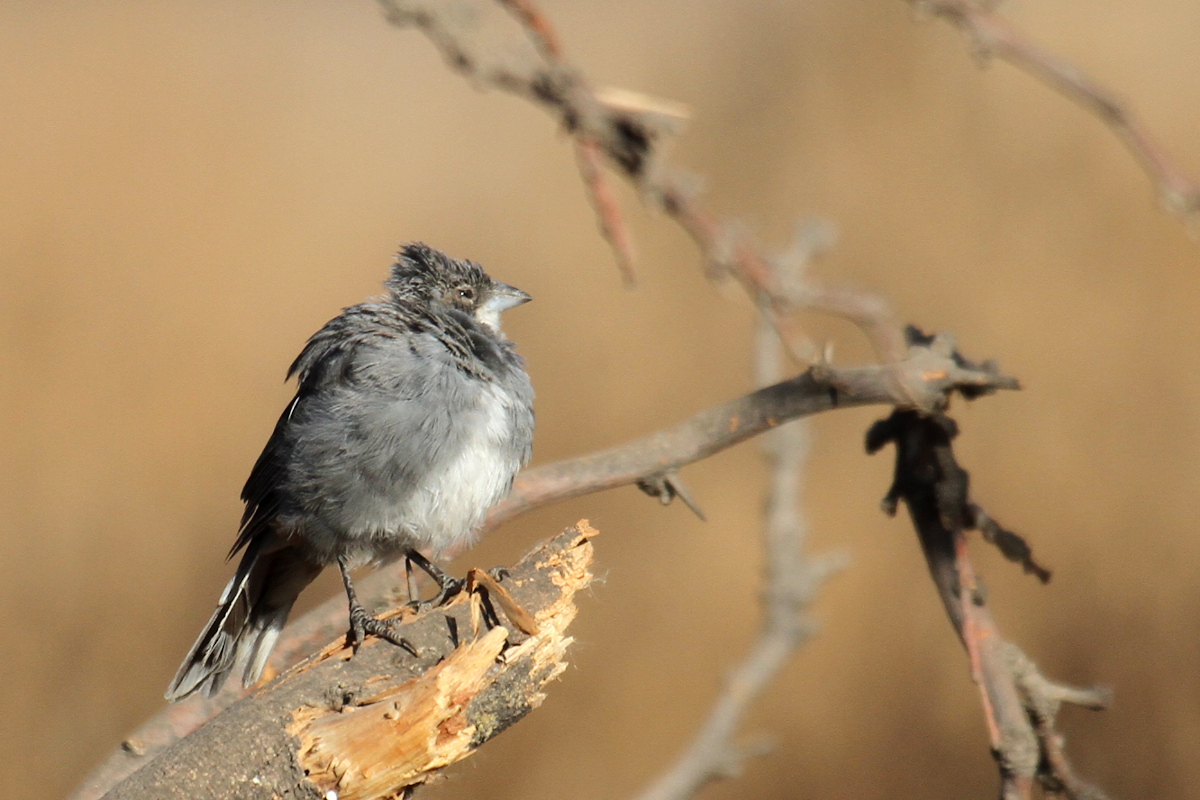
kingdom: Animalia
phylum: Chordata
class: Aves
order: Passeriformes
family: Thraupidae
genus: Diuca
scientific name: Diuca diuca
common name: Common diuca finch
